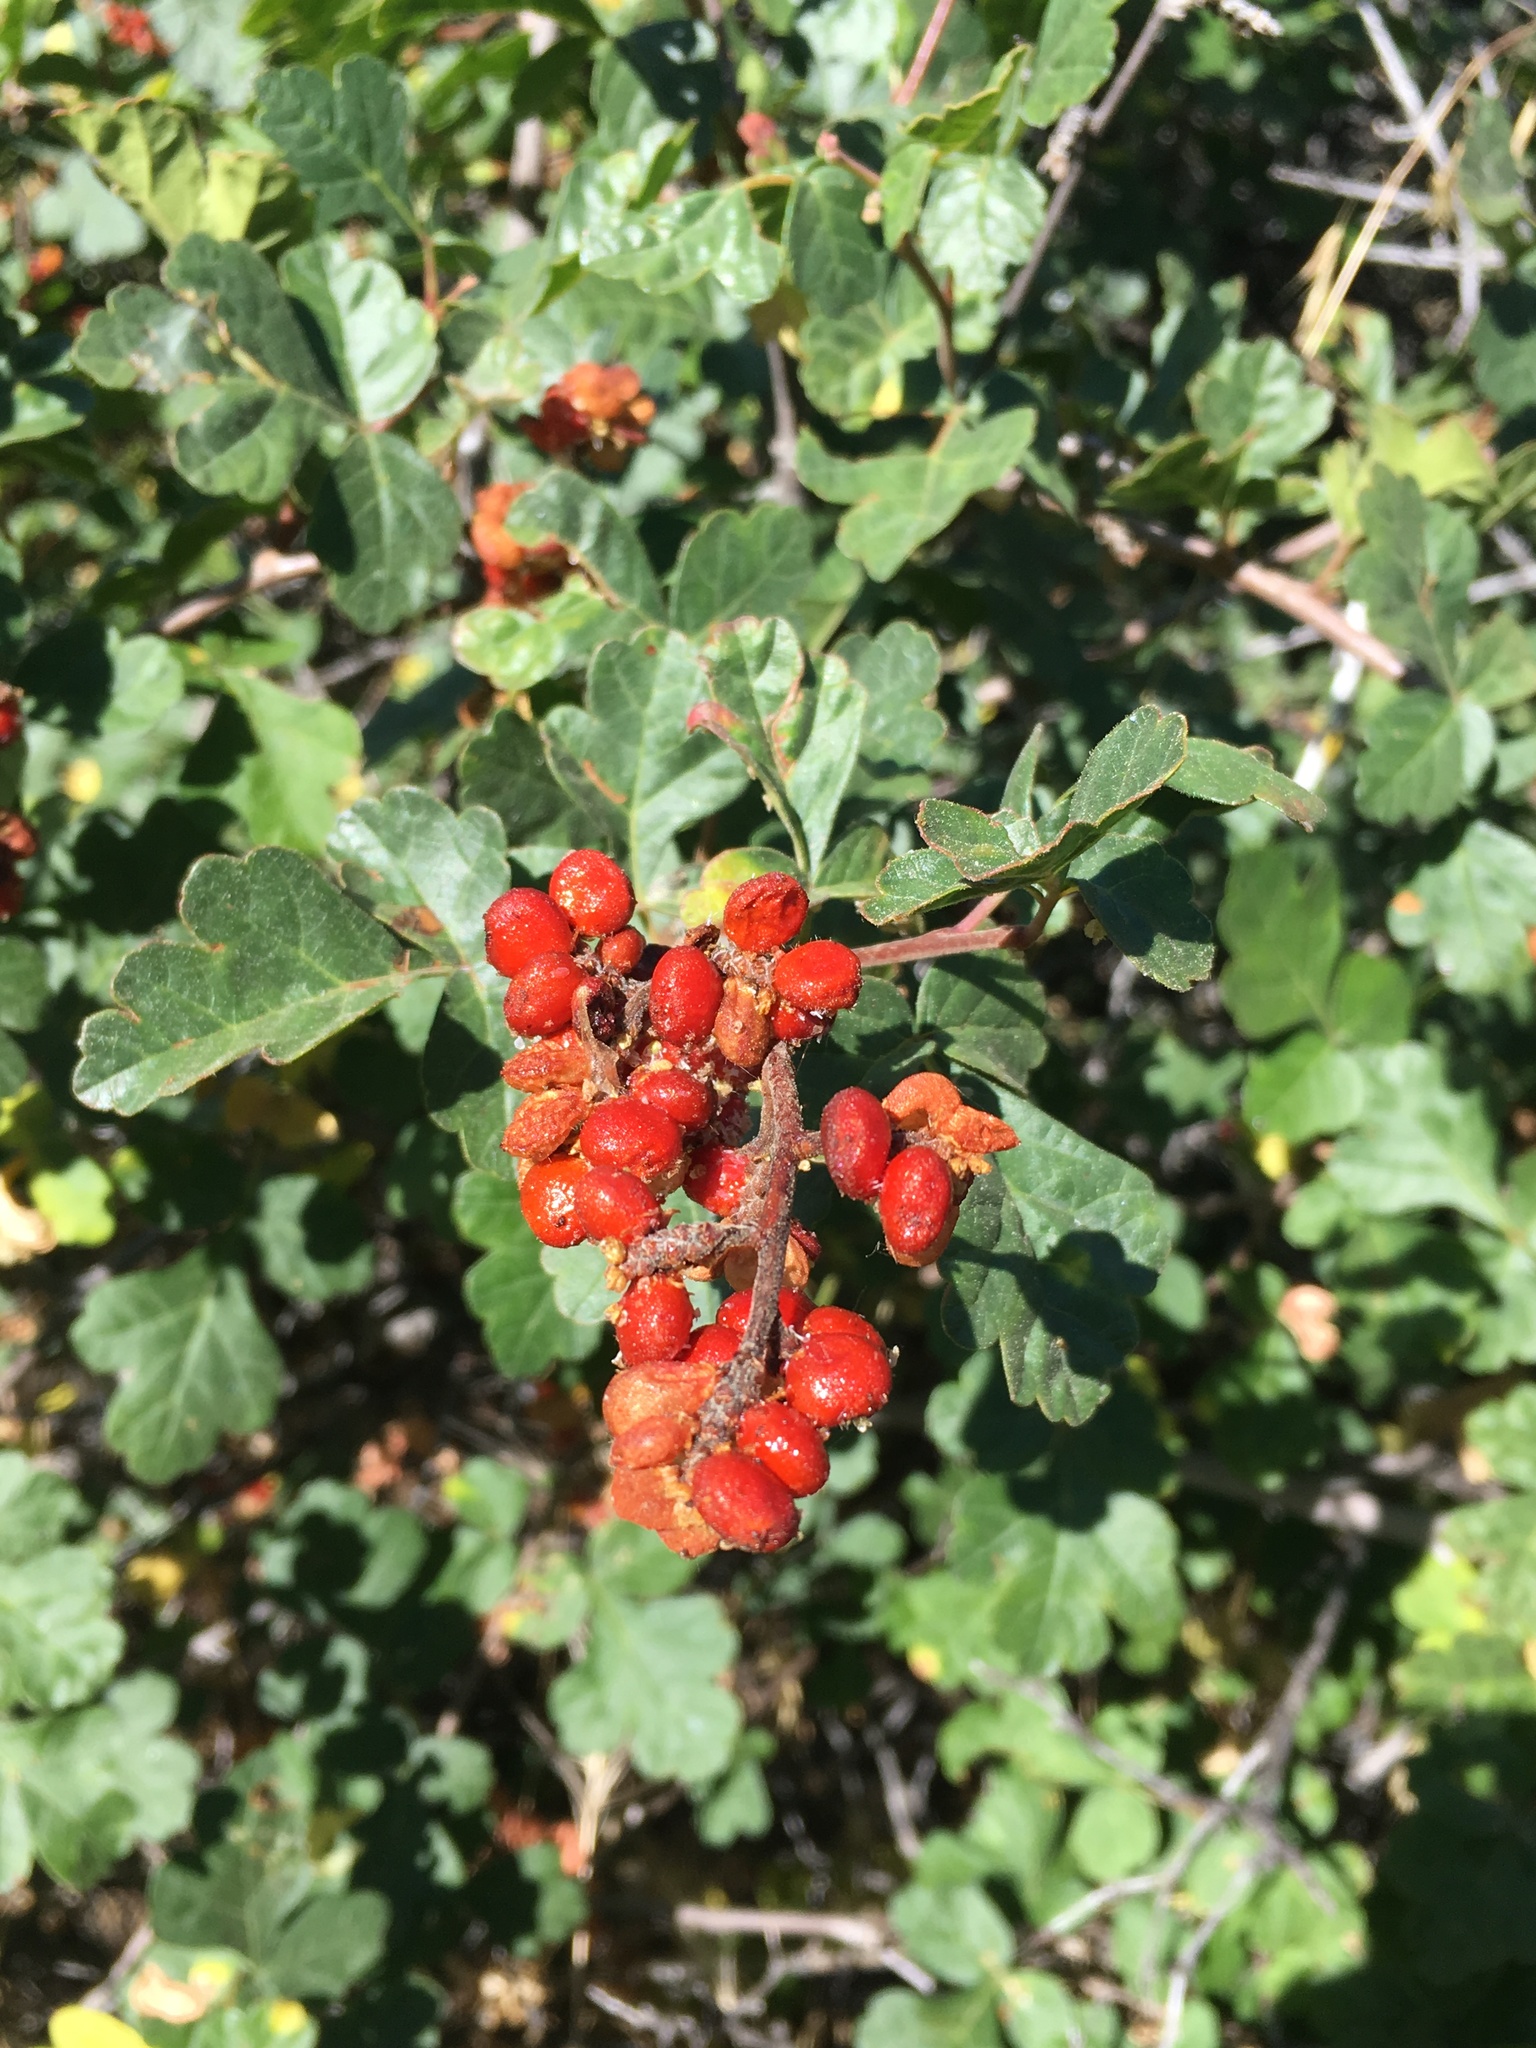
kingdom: Plantae
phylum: Tracheophyta
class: Magnoliopsida
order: Sapindales
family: Anacardiaceae
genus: Rhus
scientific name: Rhus aromatica
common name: Aromatic sumac
